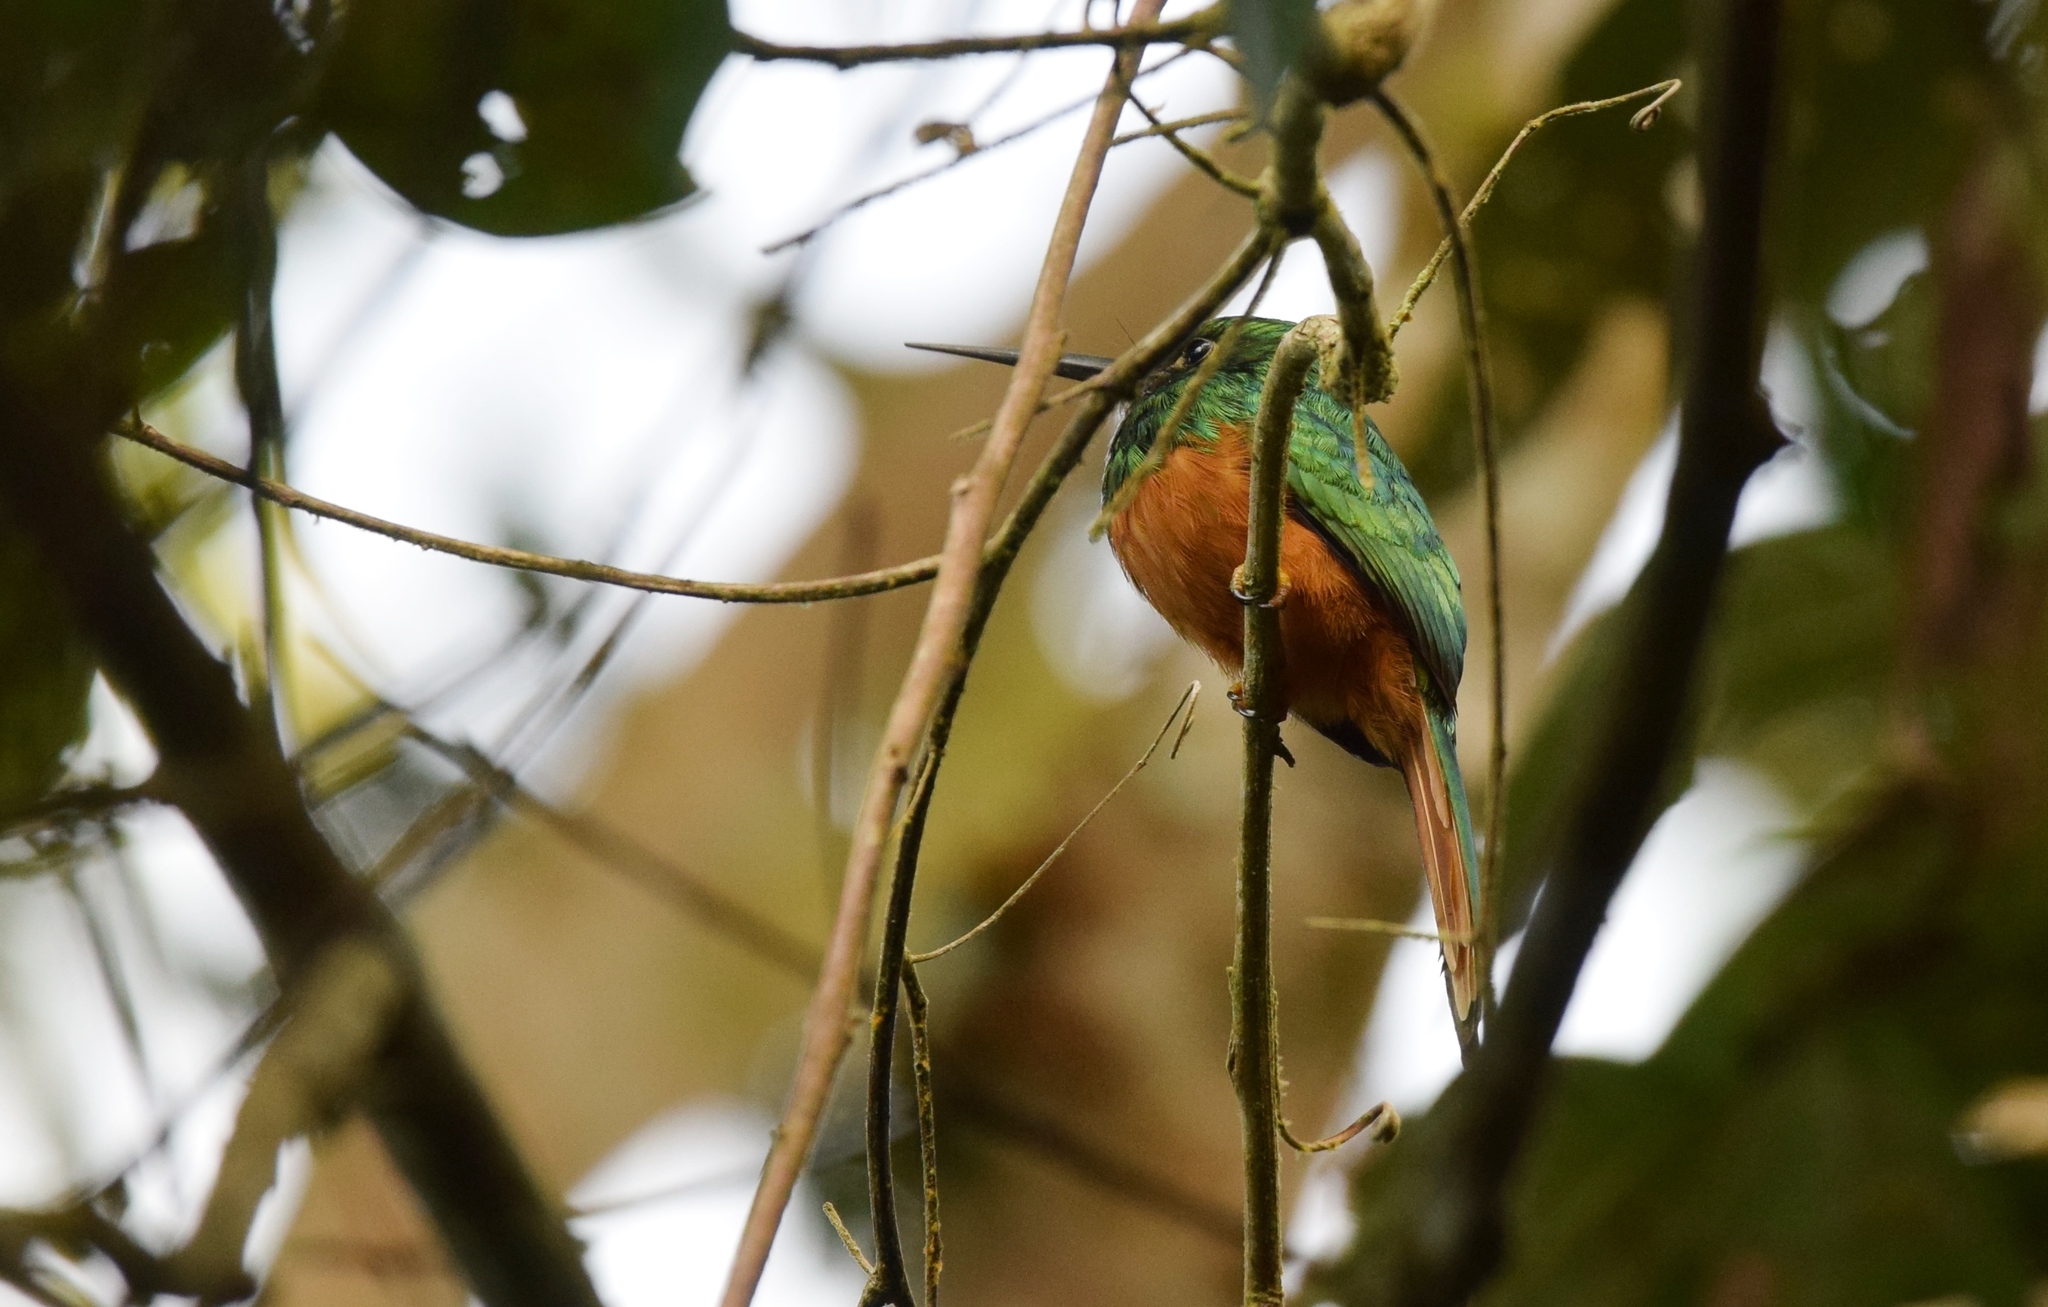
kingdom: Animalia
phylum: Chordata
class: Aves
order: Piciformes
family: Galbulidae
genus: Galbula
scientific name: Galbula ruficauda
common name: Rufous-tailed jacamar
